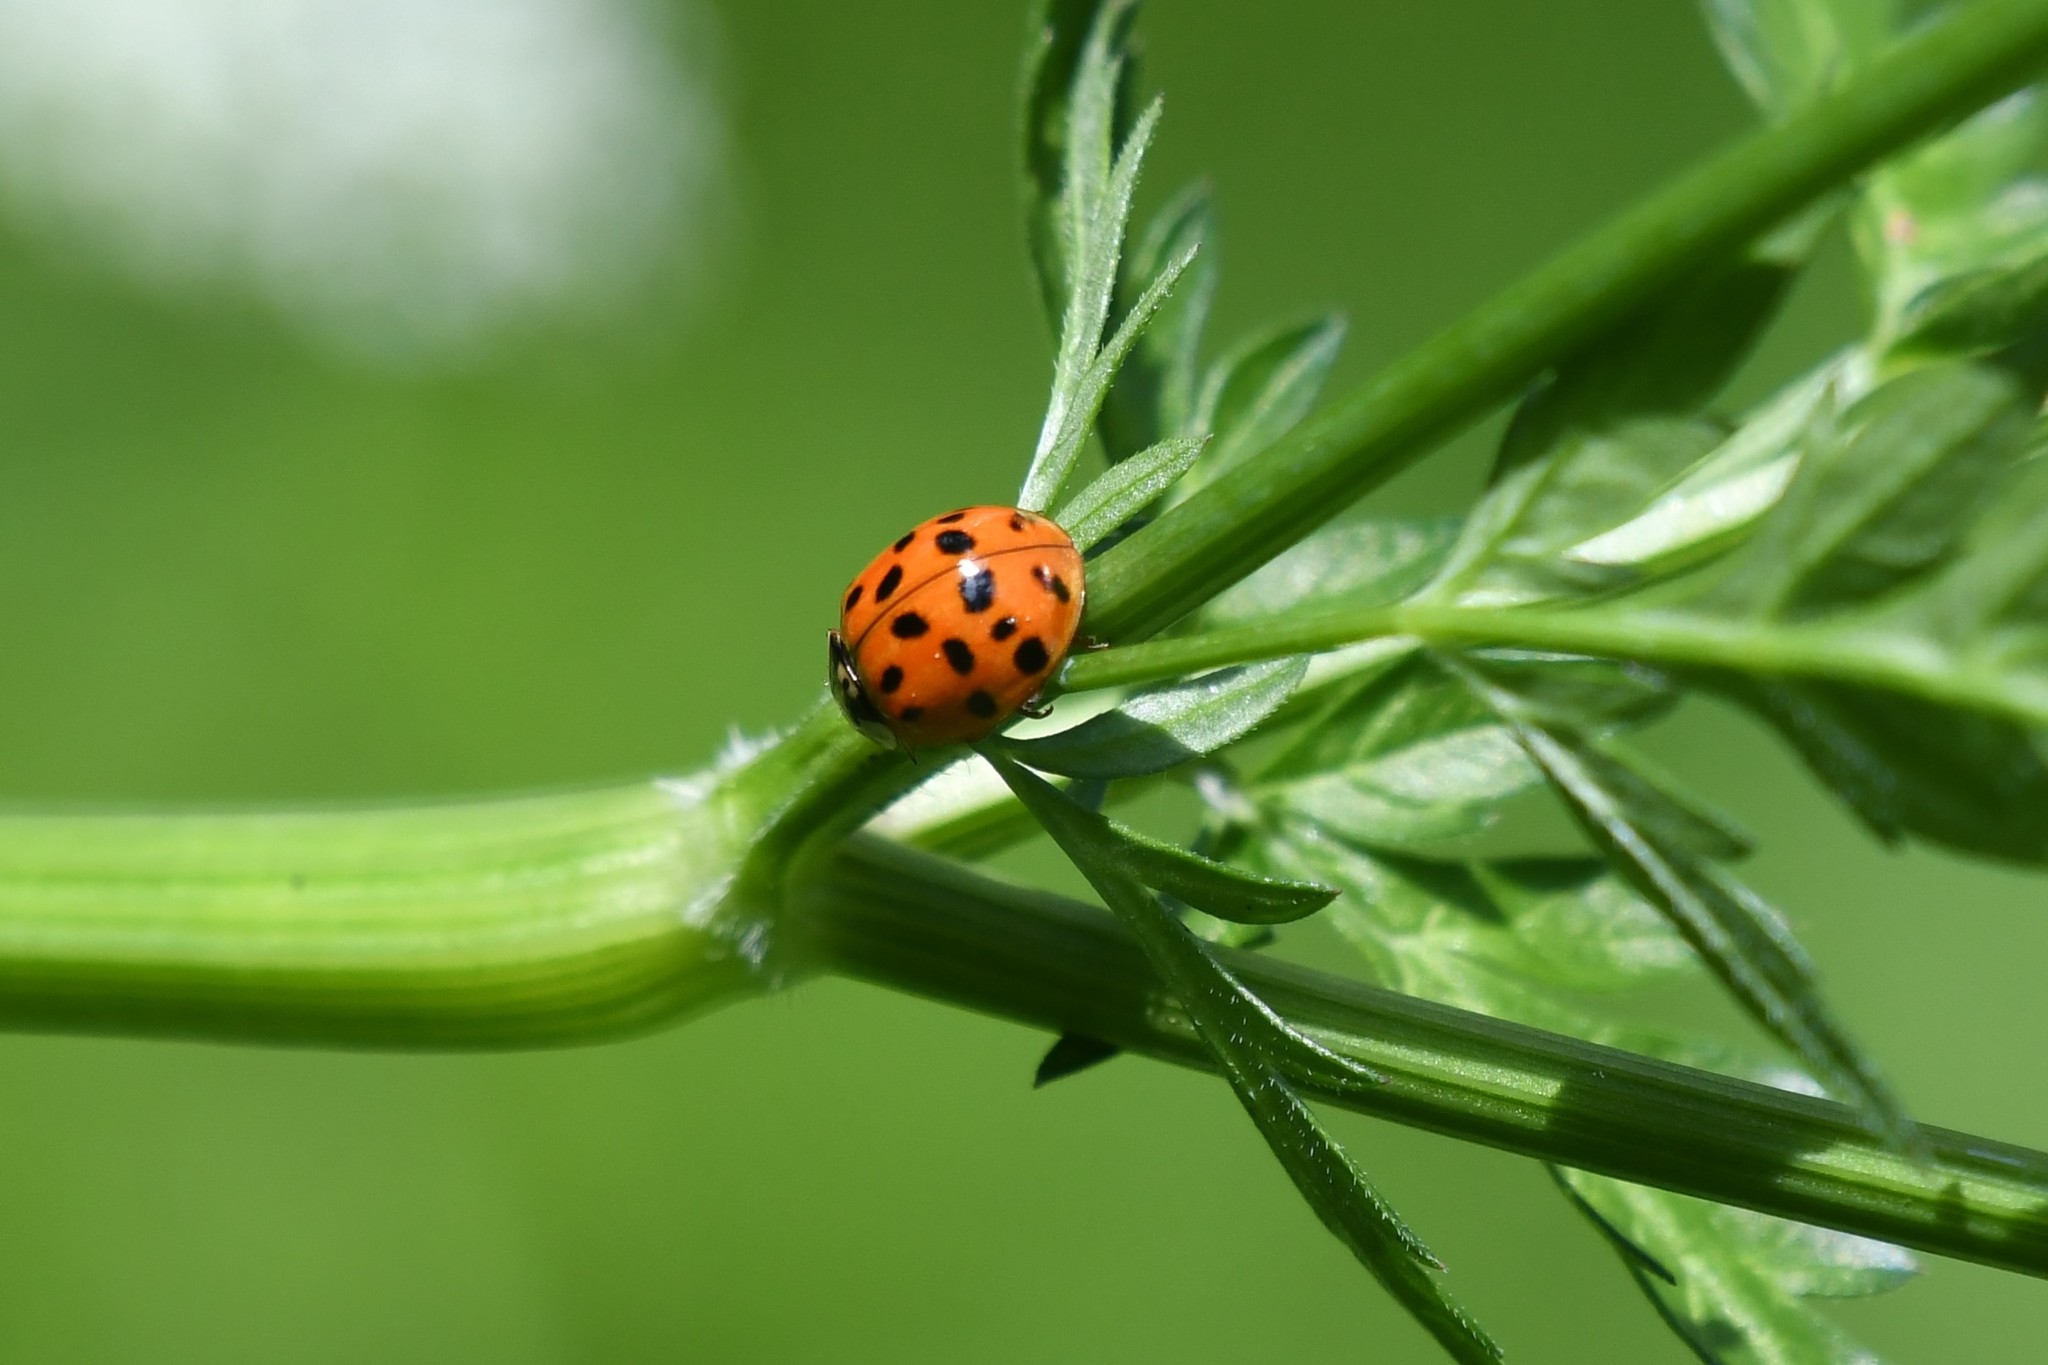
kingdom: Animalia
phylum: Arthropoda
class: Insecta
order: Coleoptera
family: Coccinellidae
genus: Harmonia
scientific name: Harmonia axyridis
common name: Harlequin ladybird
